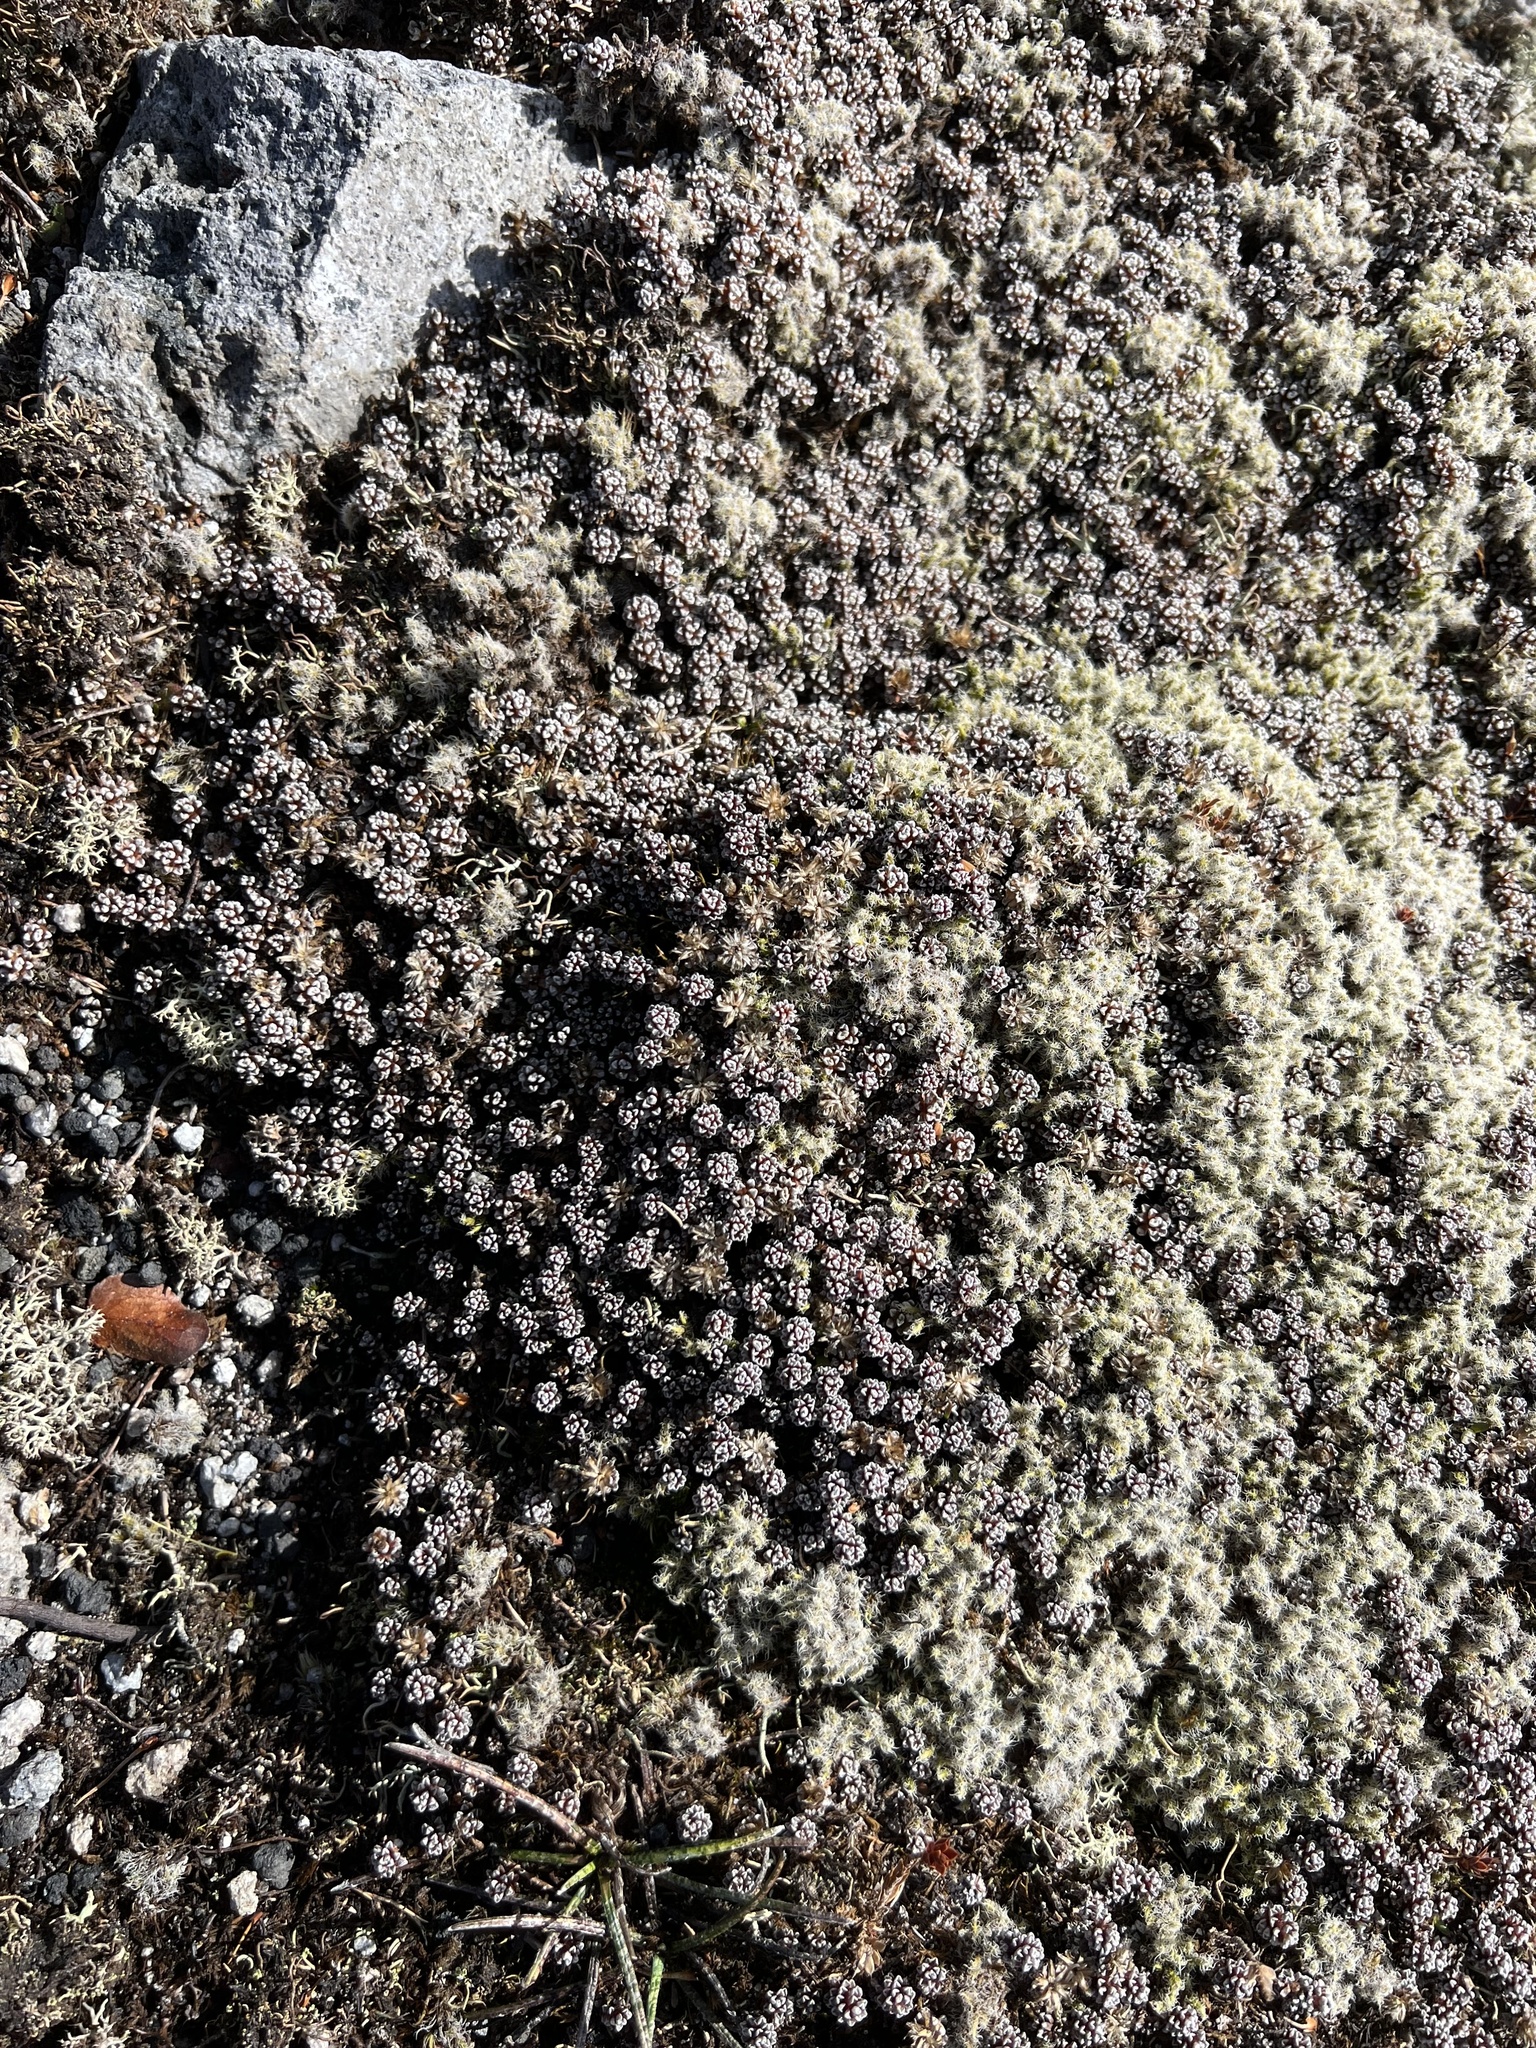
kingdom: Plantae
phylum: Tracheophyta
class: Magnoliopsida
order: Asterales
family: Asteraceae
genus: Raoulia
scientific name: Raoulia albosericea
